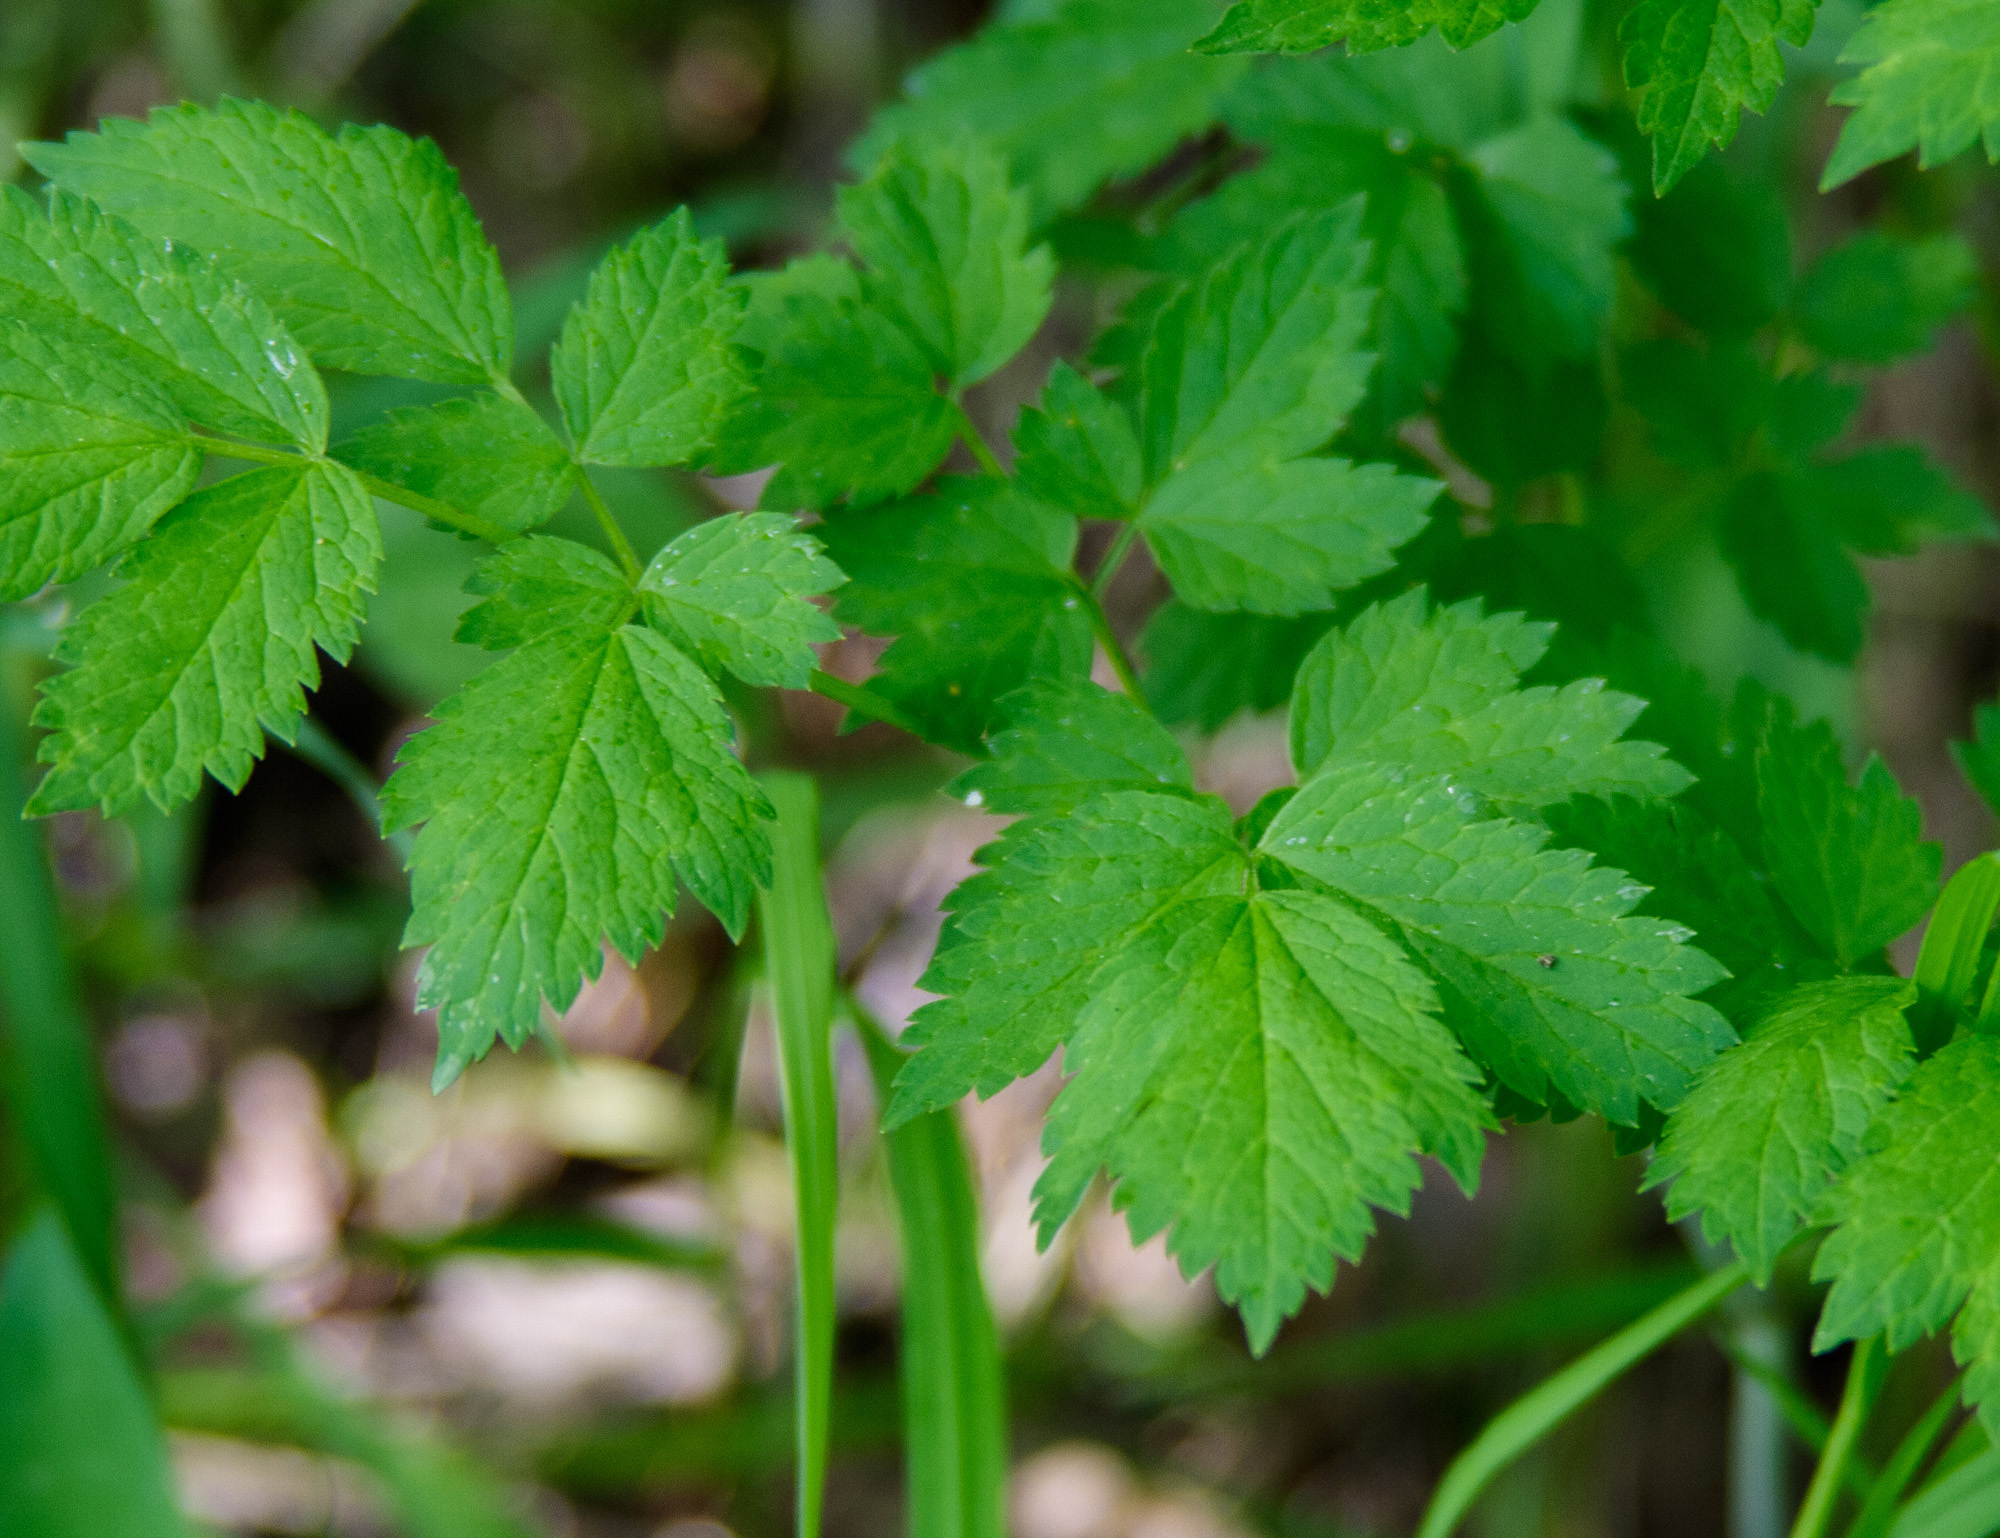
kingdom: Plantae
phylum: Tracheophyta
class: Magnoliopsida
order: Ranunculales
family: Ranunculaceae
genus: Actaea
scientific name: Actaea rubra
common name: Red baneberry
